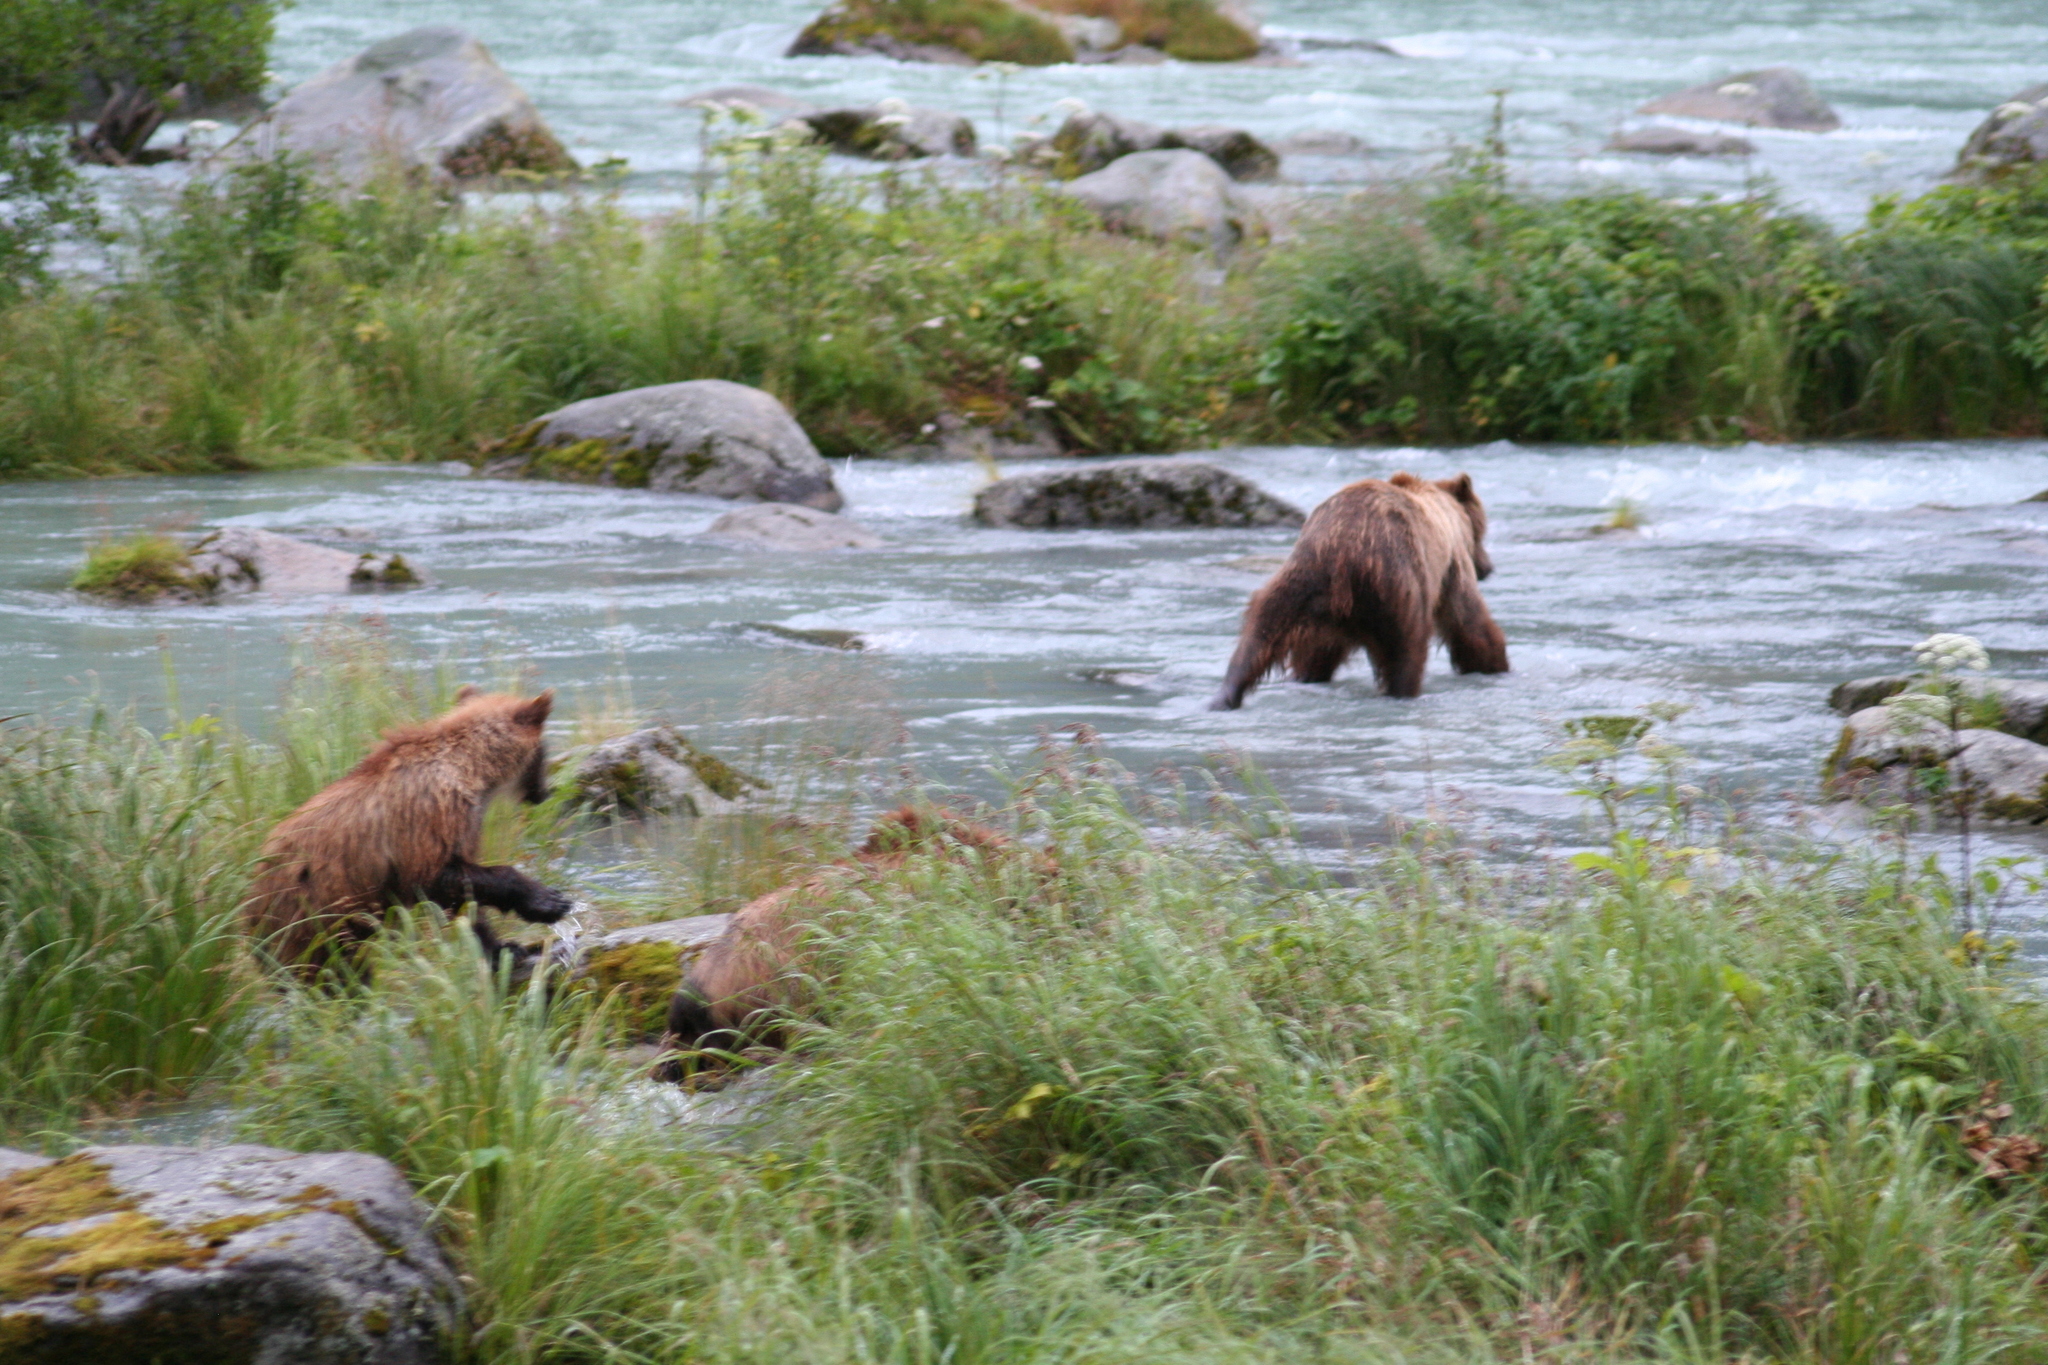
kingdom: Animalia
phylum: Chordata
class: Mammalia
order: Carnivora
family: Ursidae
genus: Ursus
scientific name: Ursus arctos
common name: Brown bear
